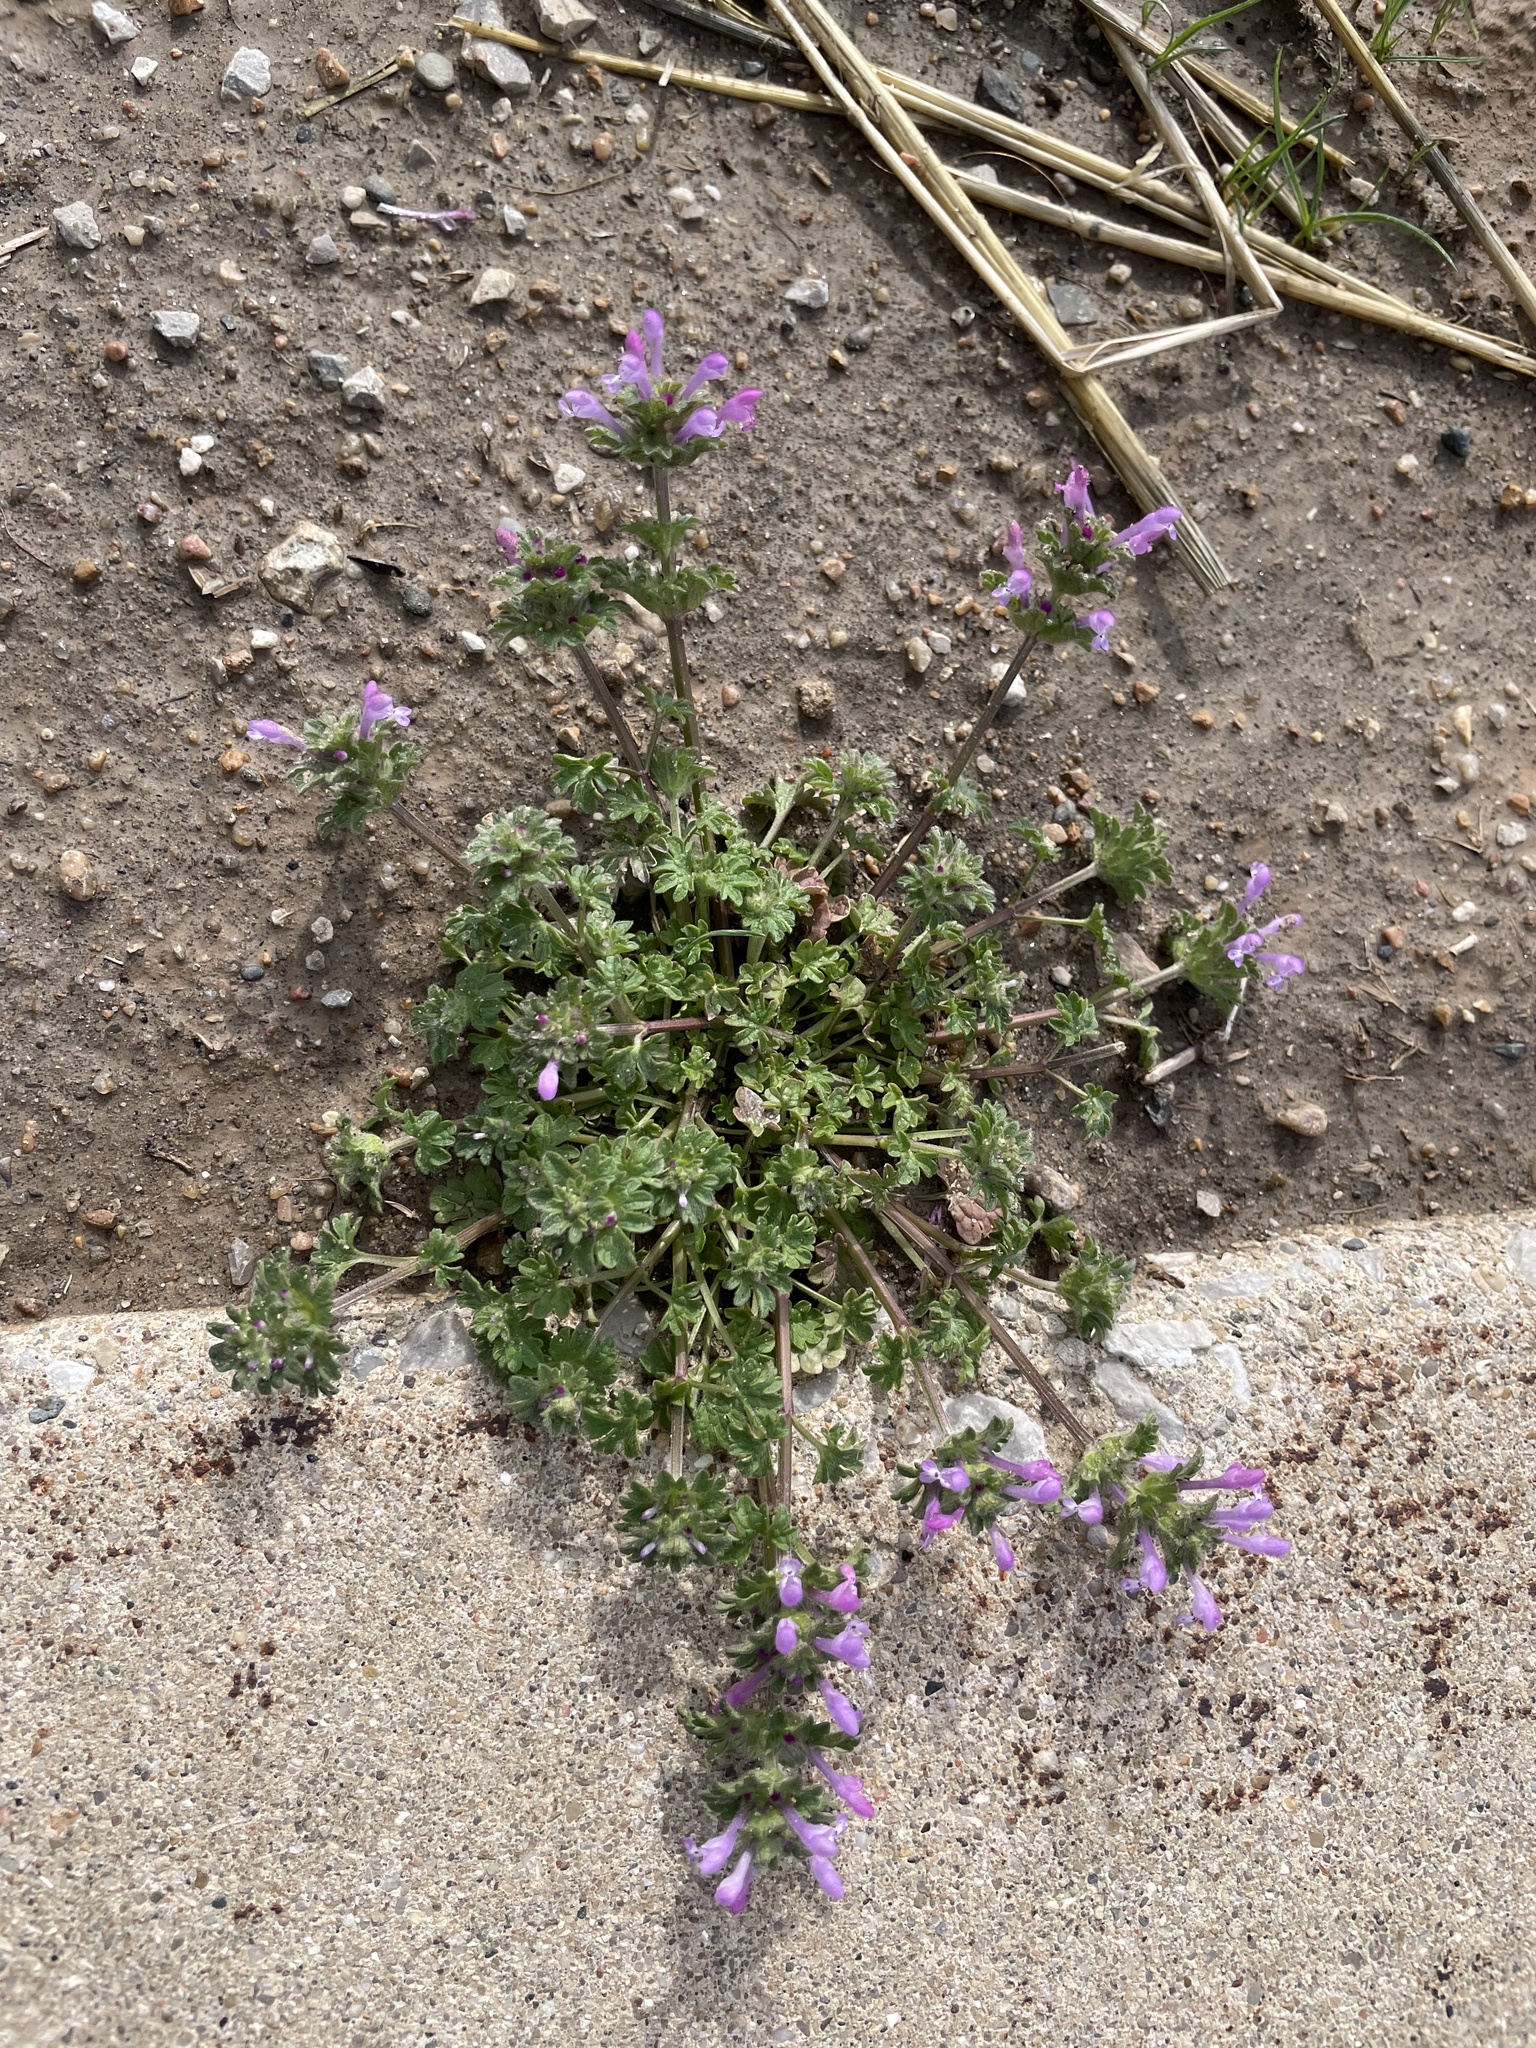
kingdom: Plantae
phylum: Tracheophyta
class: Magnoliopsida
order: Lamiales
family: Lamiaceae
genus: Lamium
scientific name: Lamium amplexicaule
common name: Henbit dead-nettle
